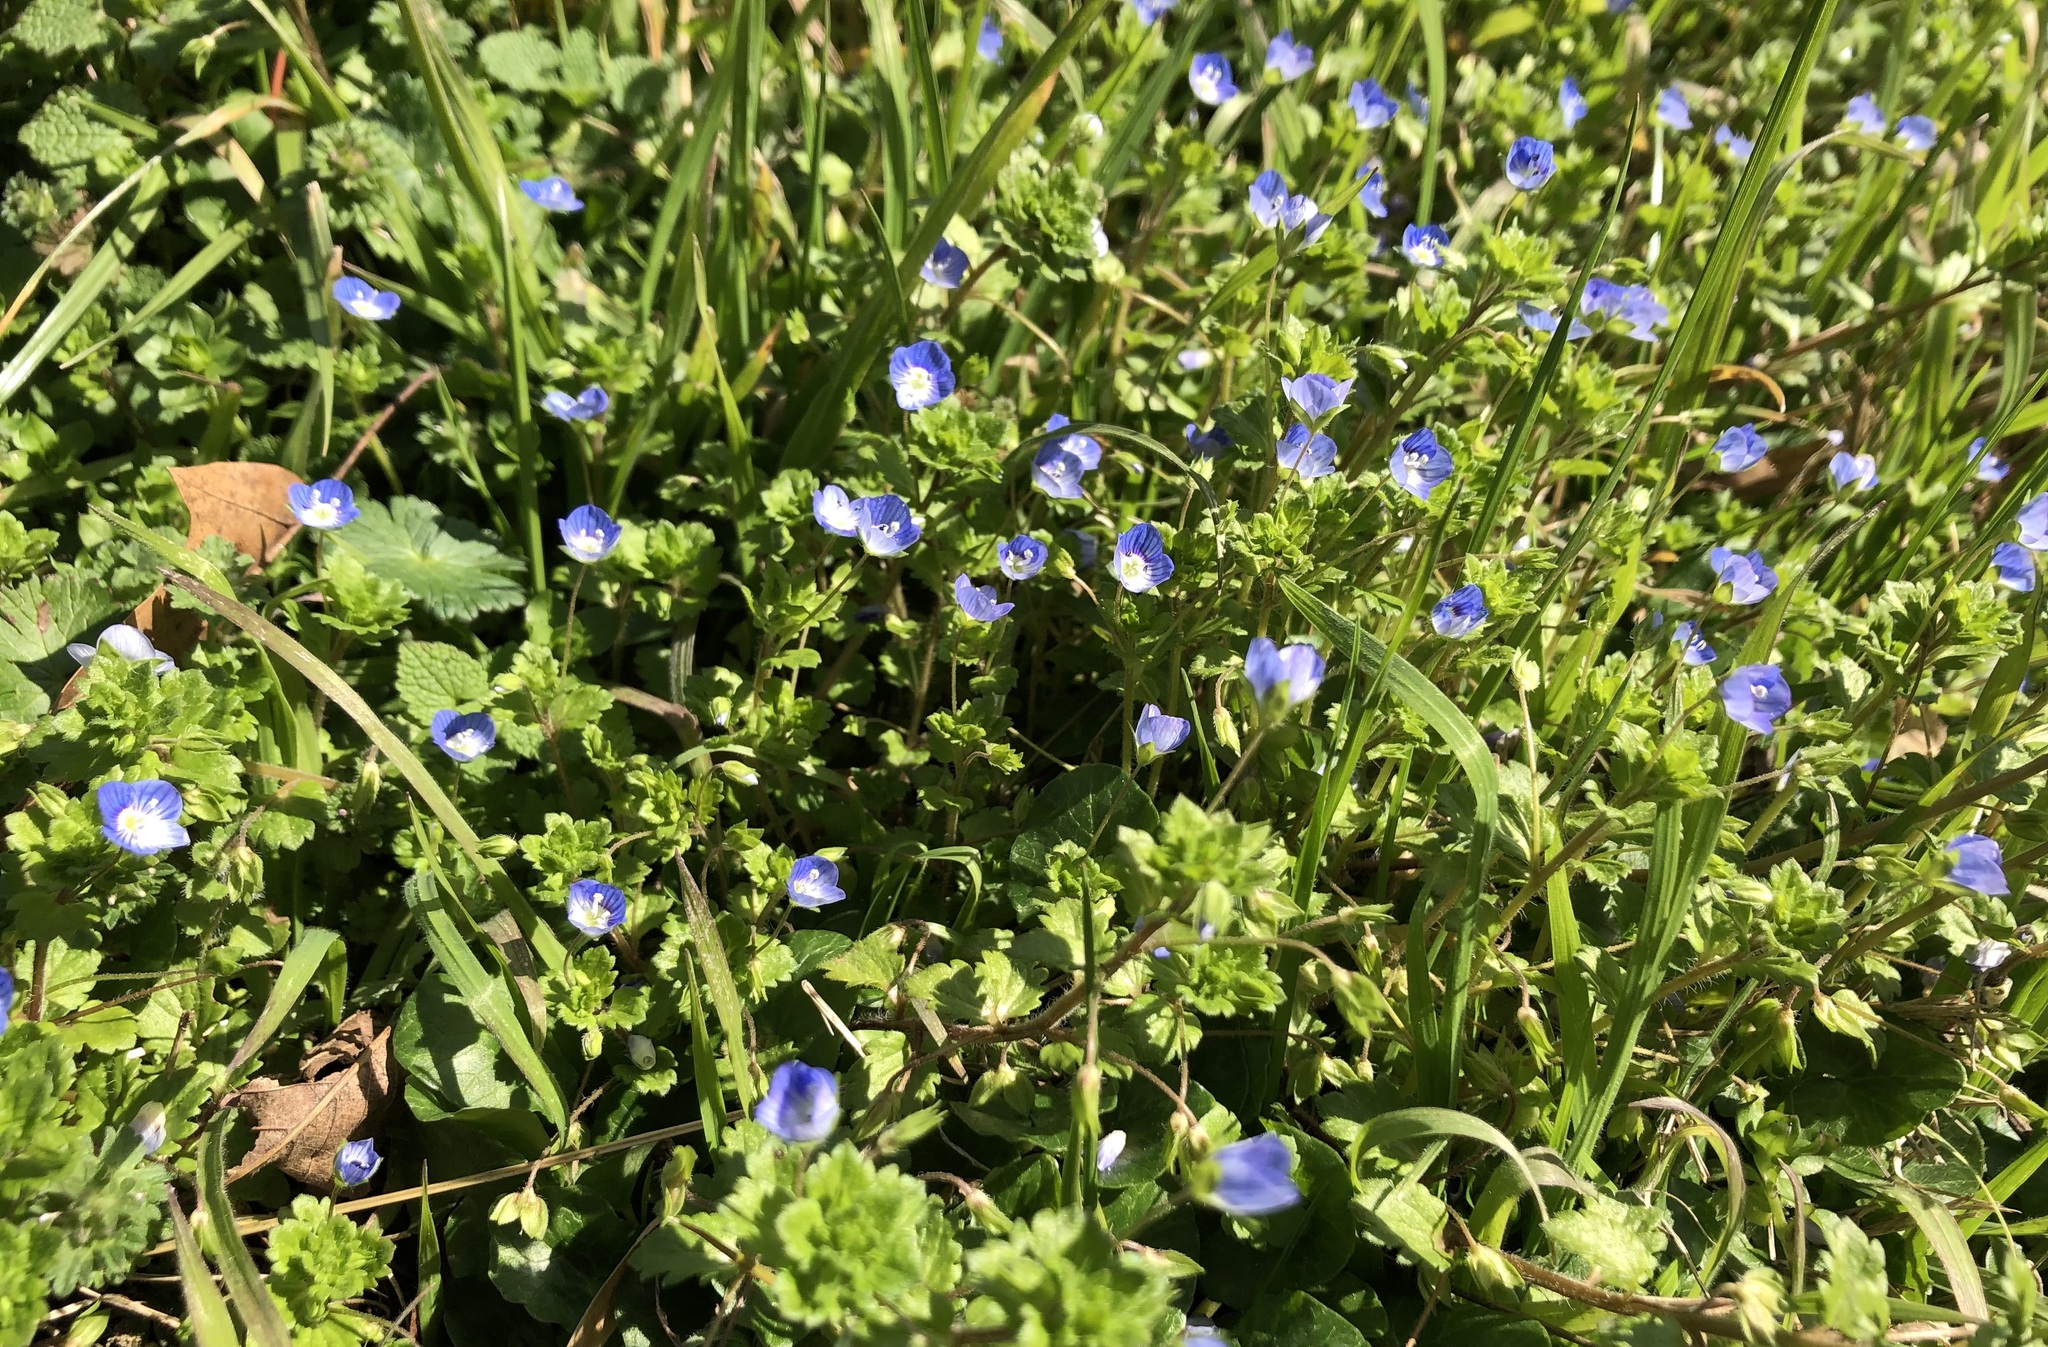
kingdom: Plantae
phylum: Tracheophyta
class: Magnoliopsida
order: Lamiales
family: Plantaginaceae
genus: Veronica
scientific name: Veronica persica
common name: Common field-speedwell
